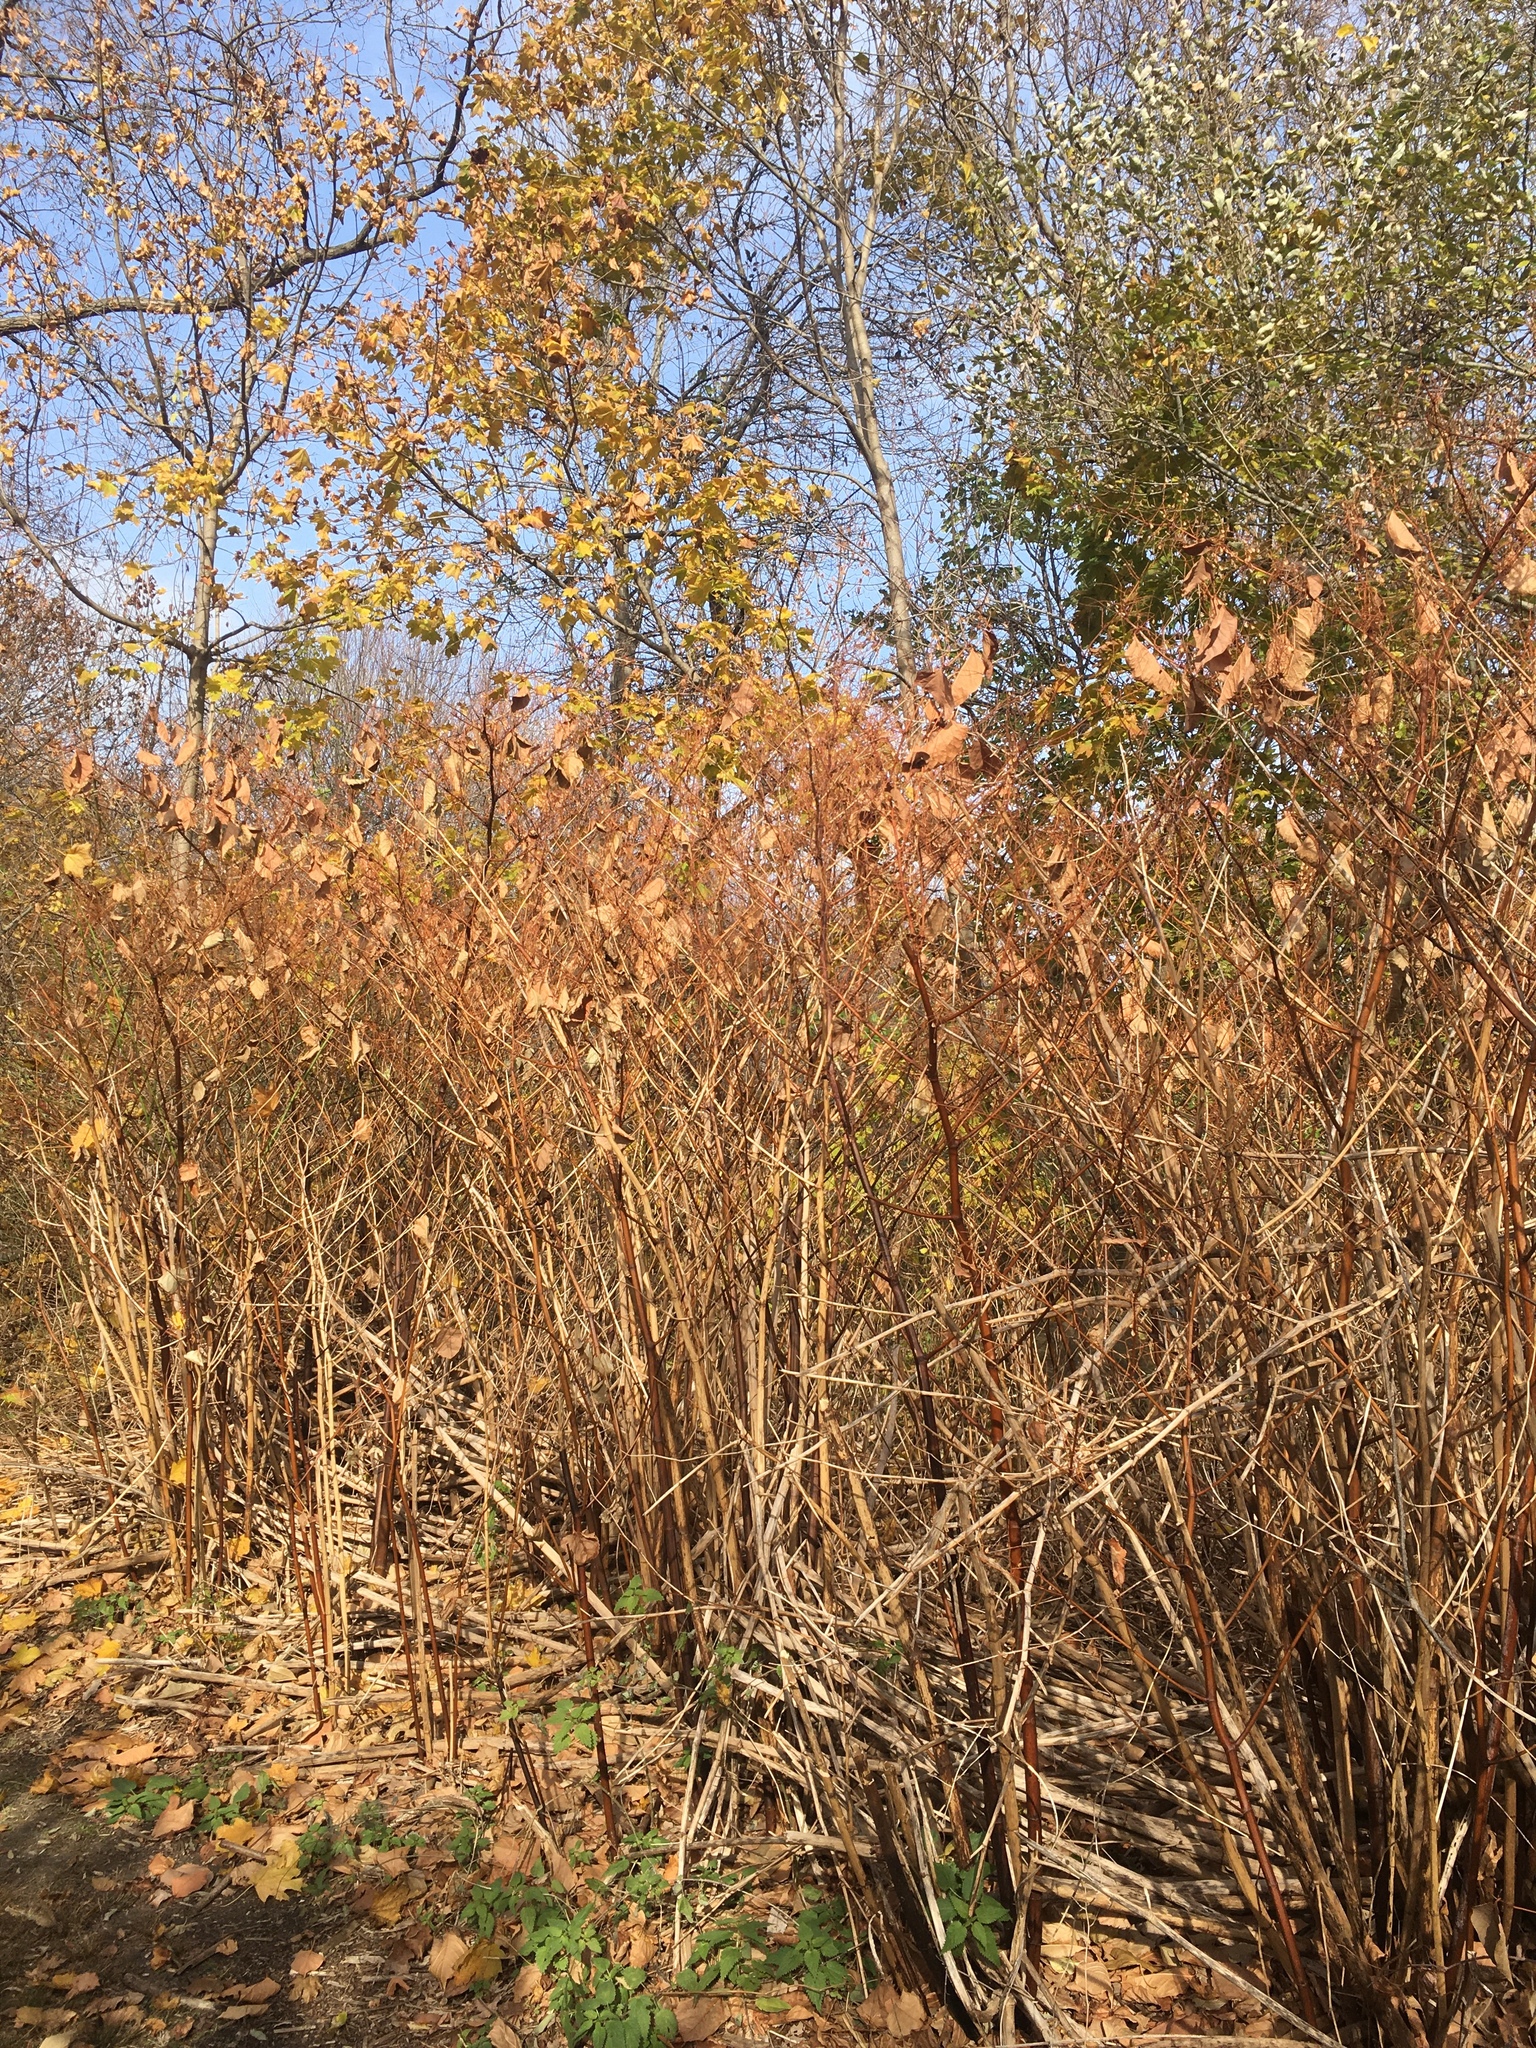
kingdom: Plantae
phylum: Tracheophyta
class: Magnoliopsida
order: Caryophyllales
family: Polygonaceae
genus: Reynoutria
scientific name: Reynoutria japonica
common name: Japanese knotweed
